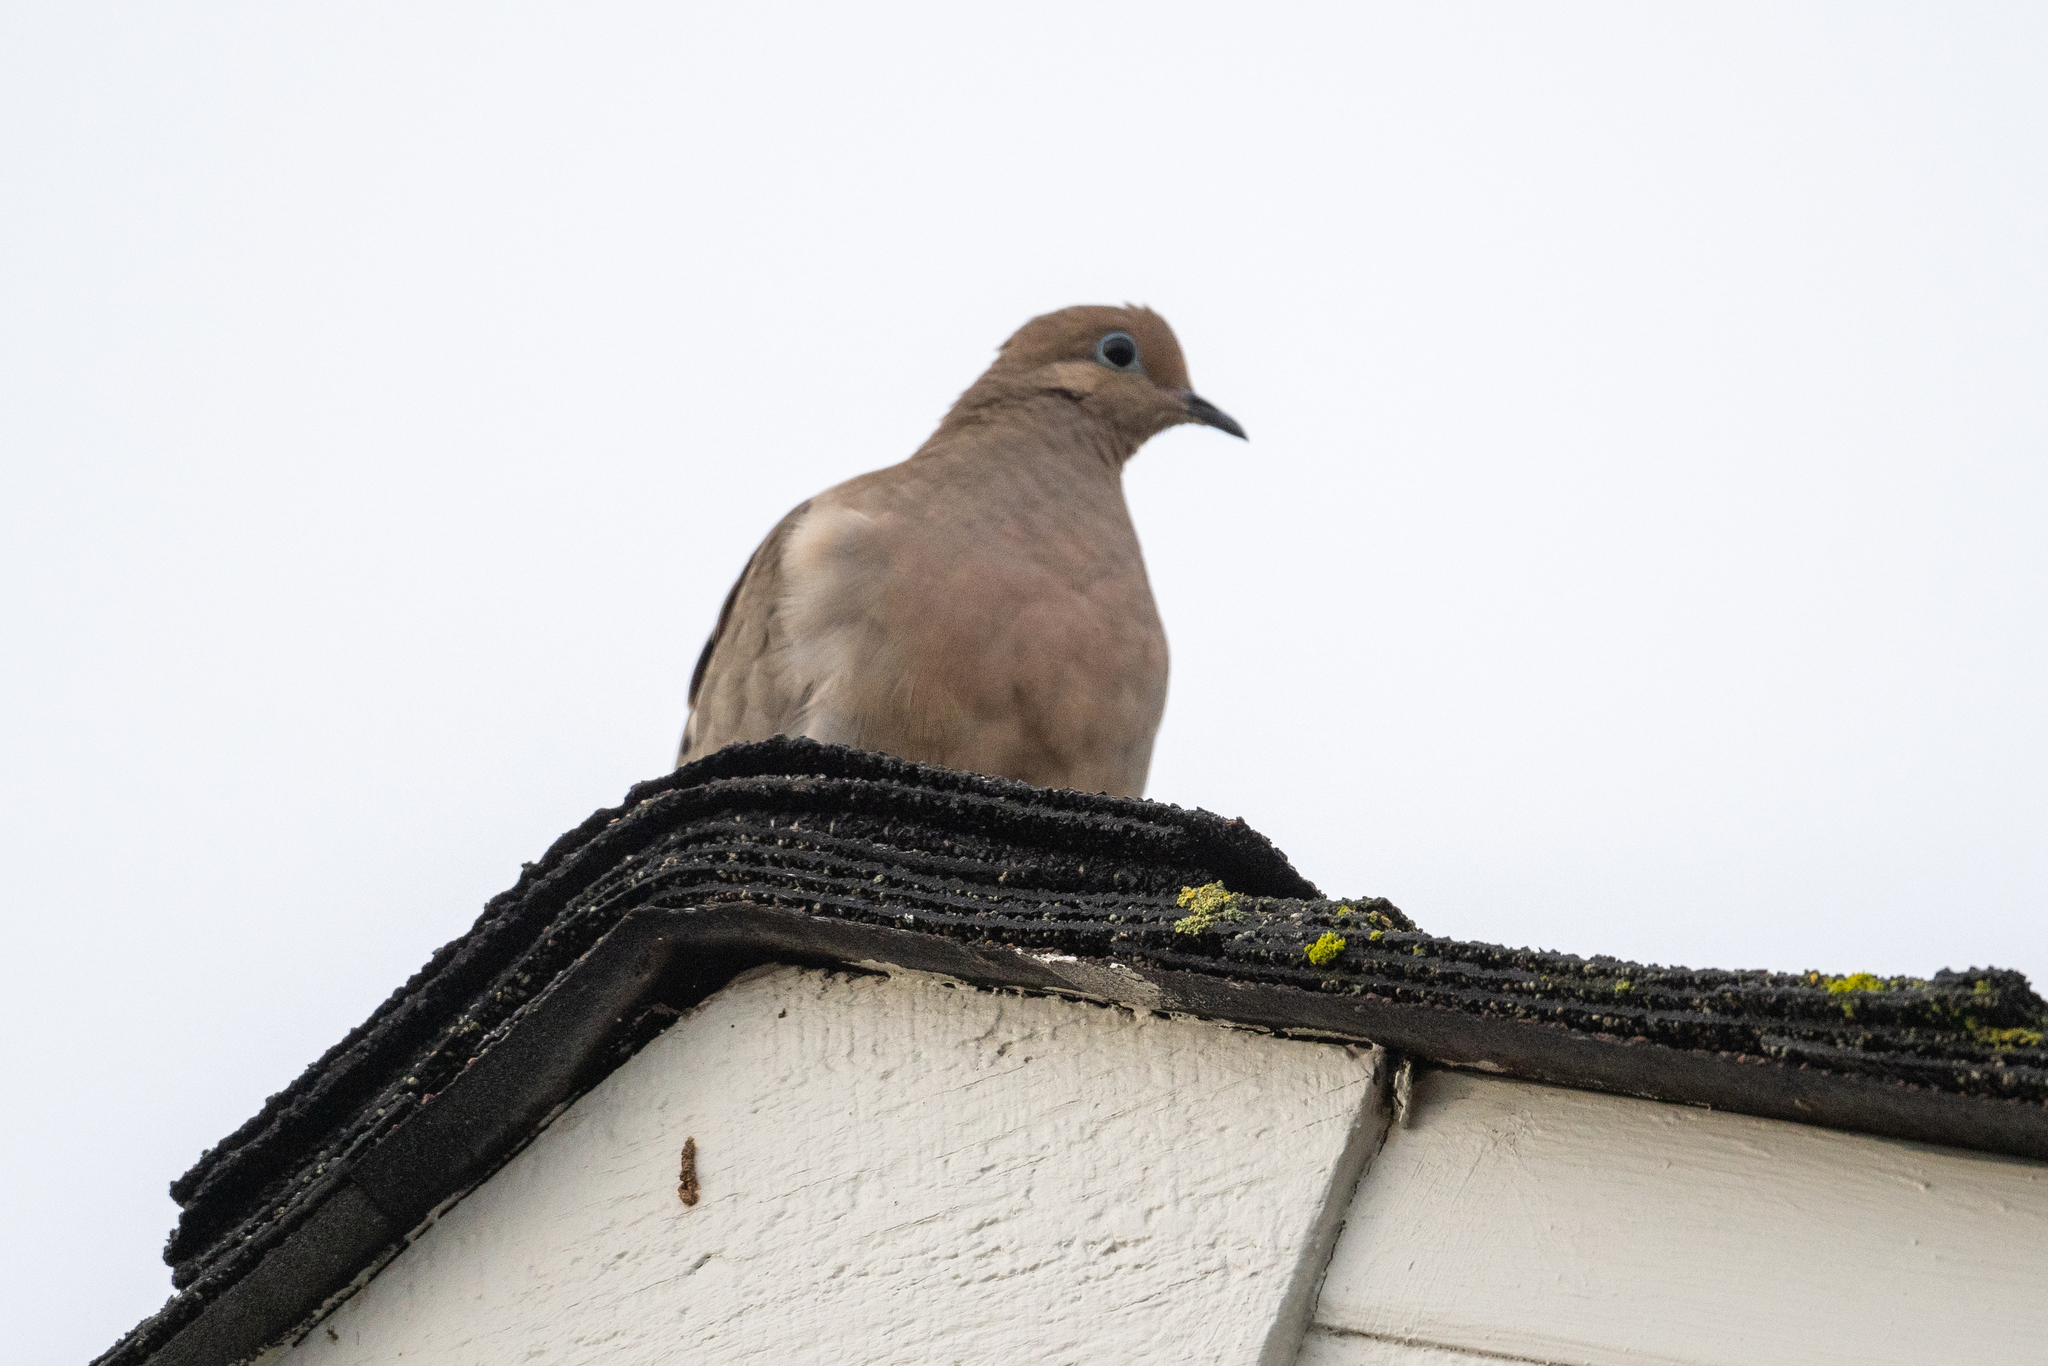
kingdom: Animalia
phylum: Chordata
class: Aves
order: Columbiformes
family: Columbidae
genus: Zenaida
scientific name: Zenaida macroura
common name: Mourning dove
